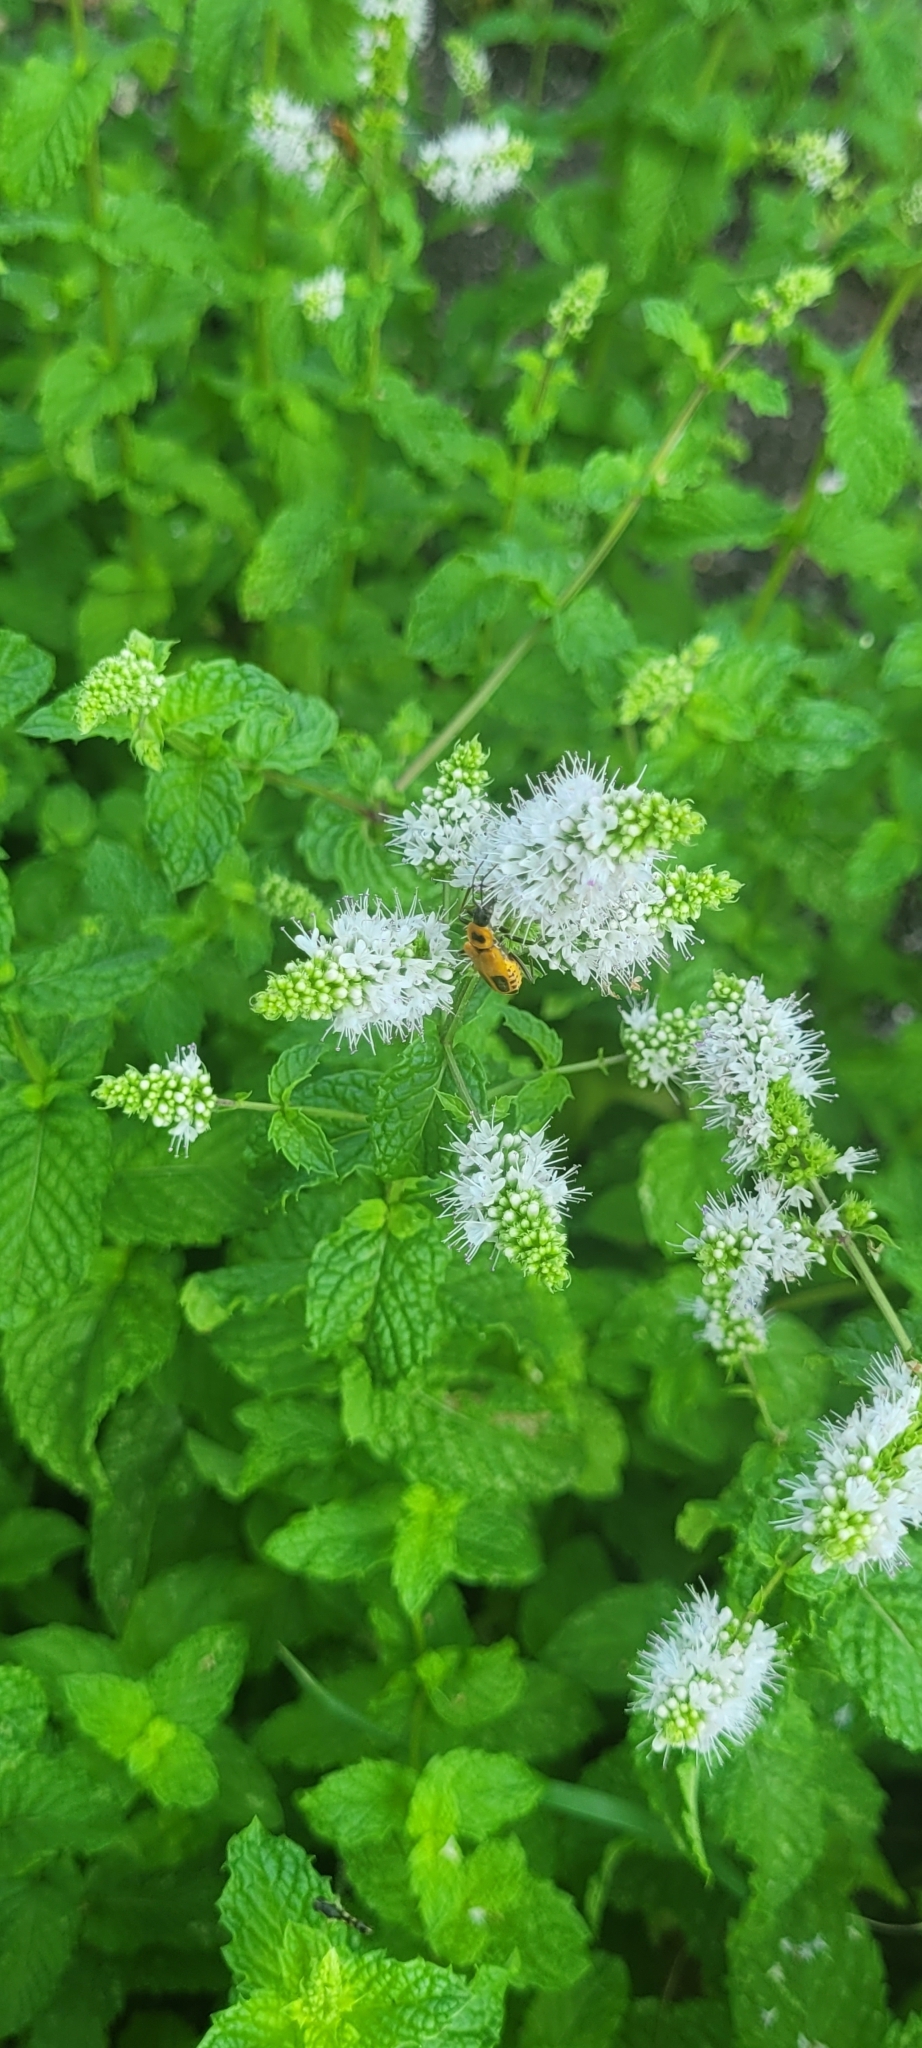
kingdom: Animalia
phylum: Arthropoda
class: Insecta
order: Coleoptera
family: Cantharidae
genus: Chauliognathus
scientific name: Chauliognathus pensylvanicus
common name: Goldenrod soldier beetle
